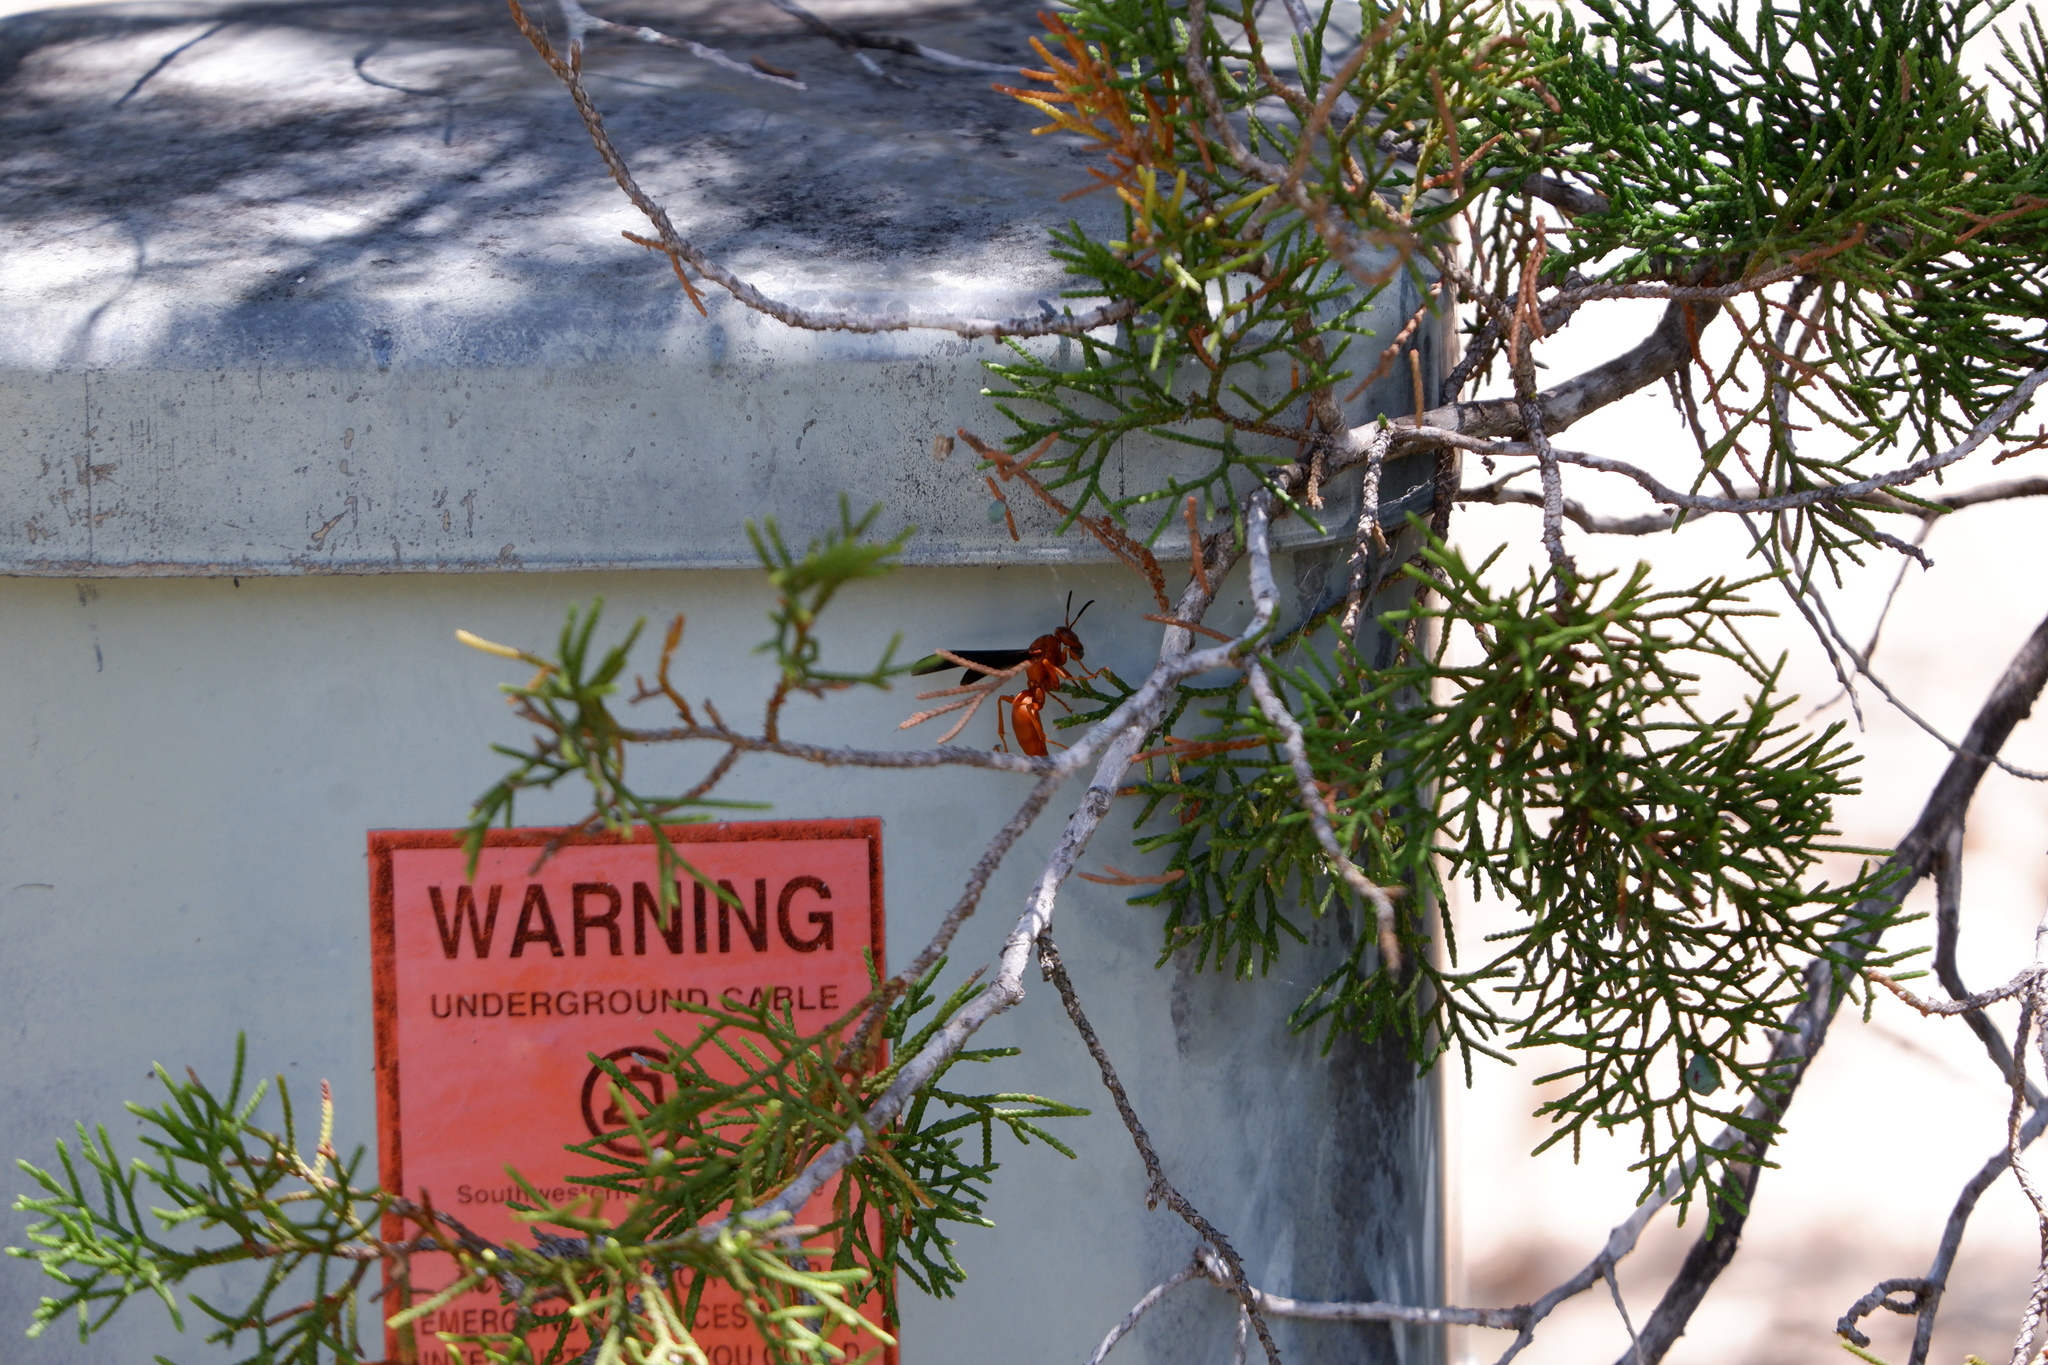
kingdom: Animalia
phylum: Arthropoda
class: Insecta
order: Hymenoptera
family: Vespidae
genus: Fuscopolistes
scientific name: Fuscopolistes
